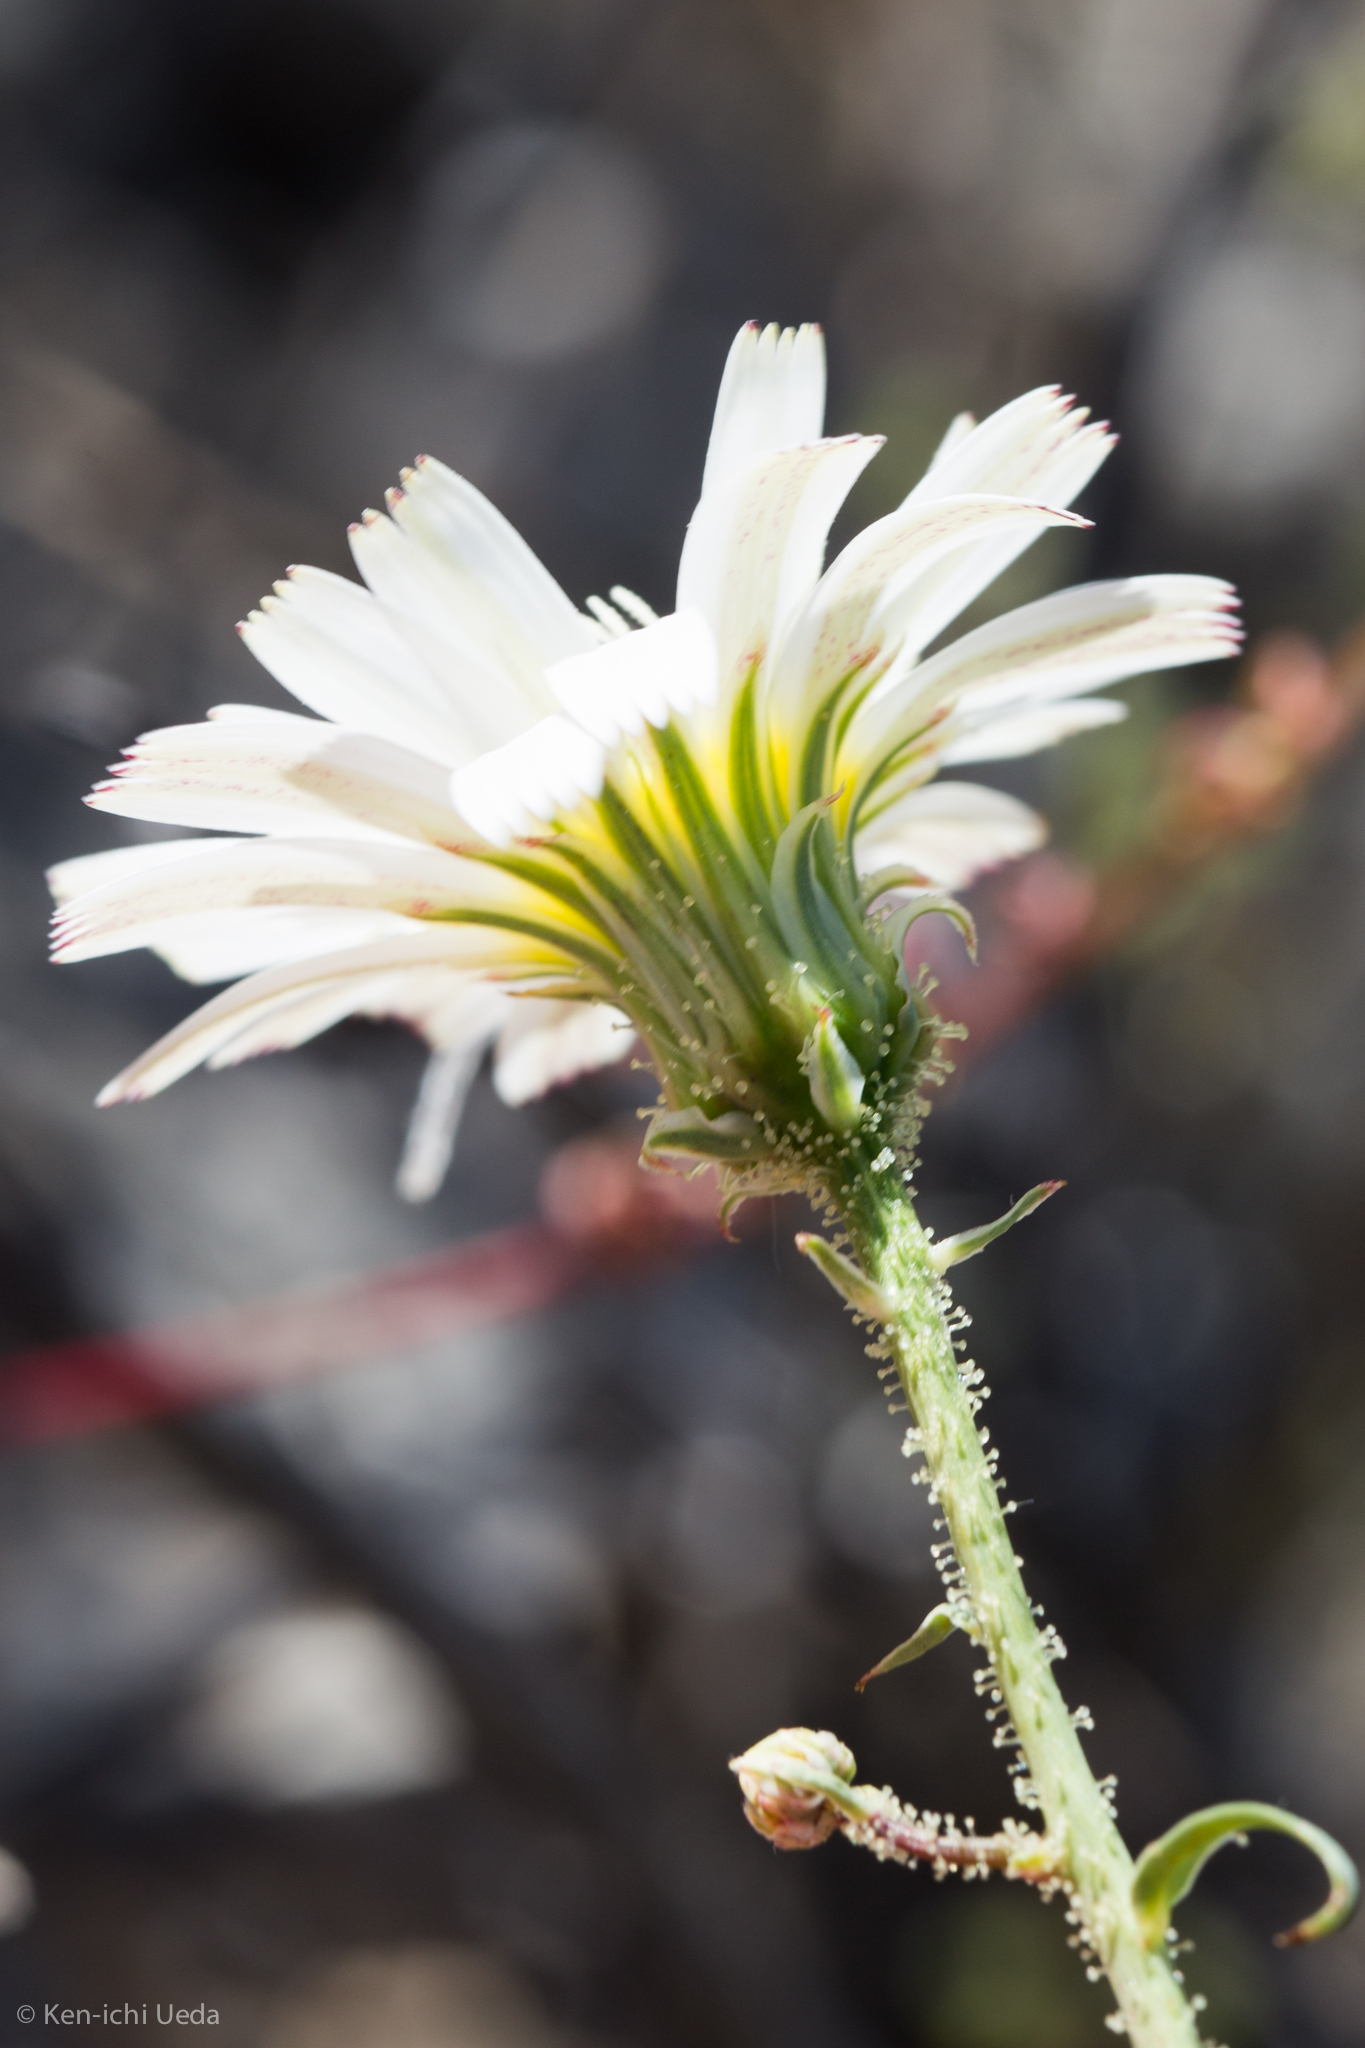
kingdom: Plantae
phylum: Tracheophyta
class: Magnoliopsida
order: Asterales
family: Asteraceae
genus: Calycoseris
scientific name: Calycoseris wrightii
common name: White tackstem
